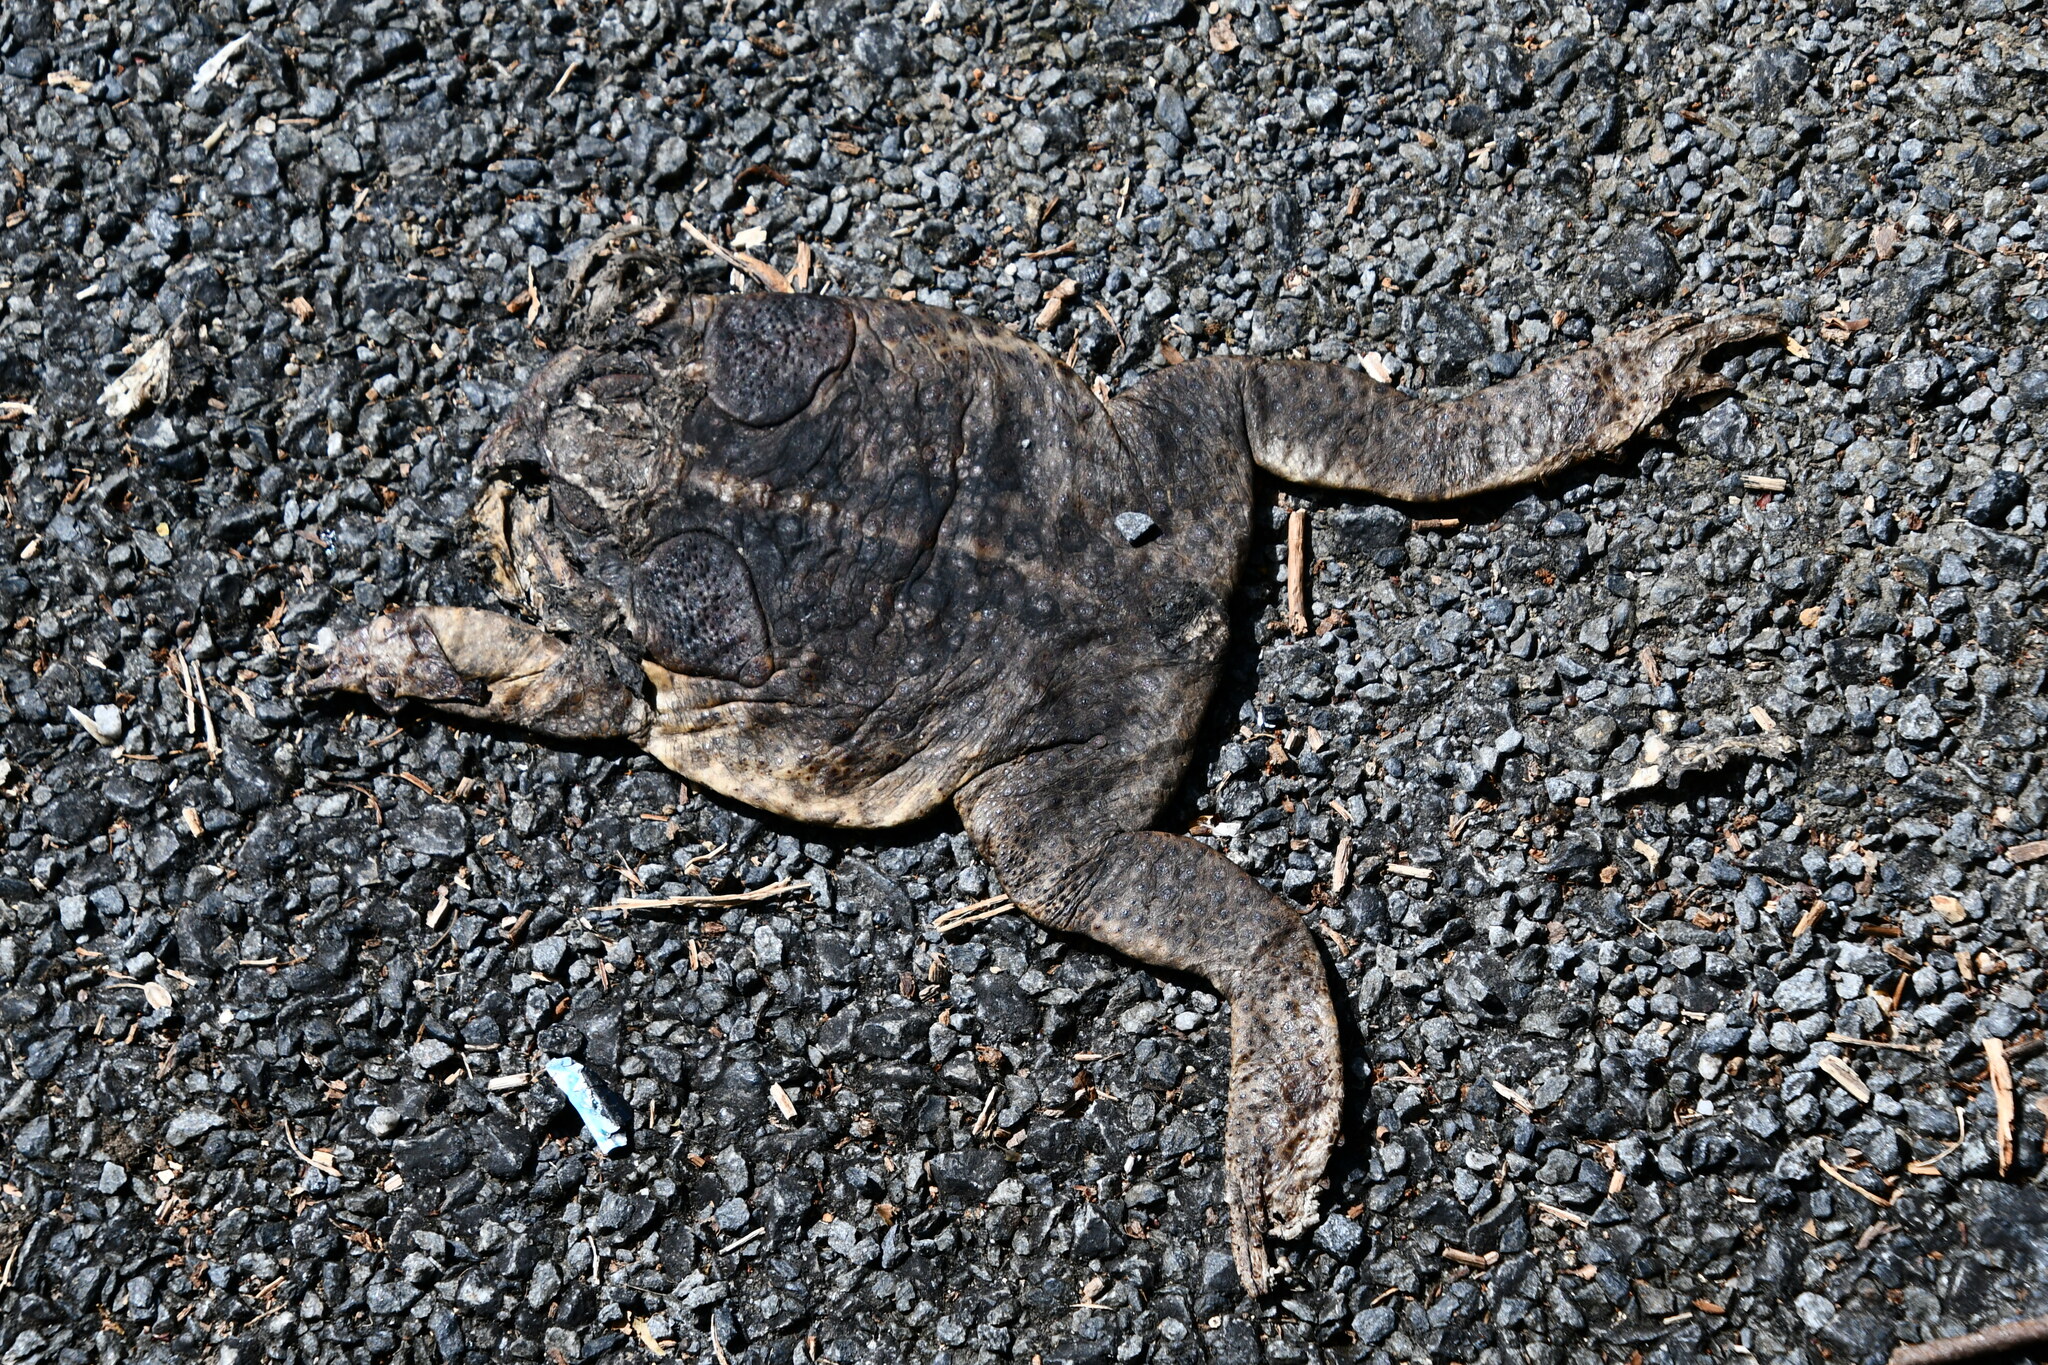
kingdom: Animalia
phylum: Chordata
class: Amphibia
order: Anura
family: Bufonidae
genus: Rhinella
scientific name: Rhinella marina
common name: Cane toad
